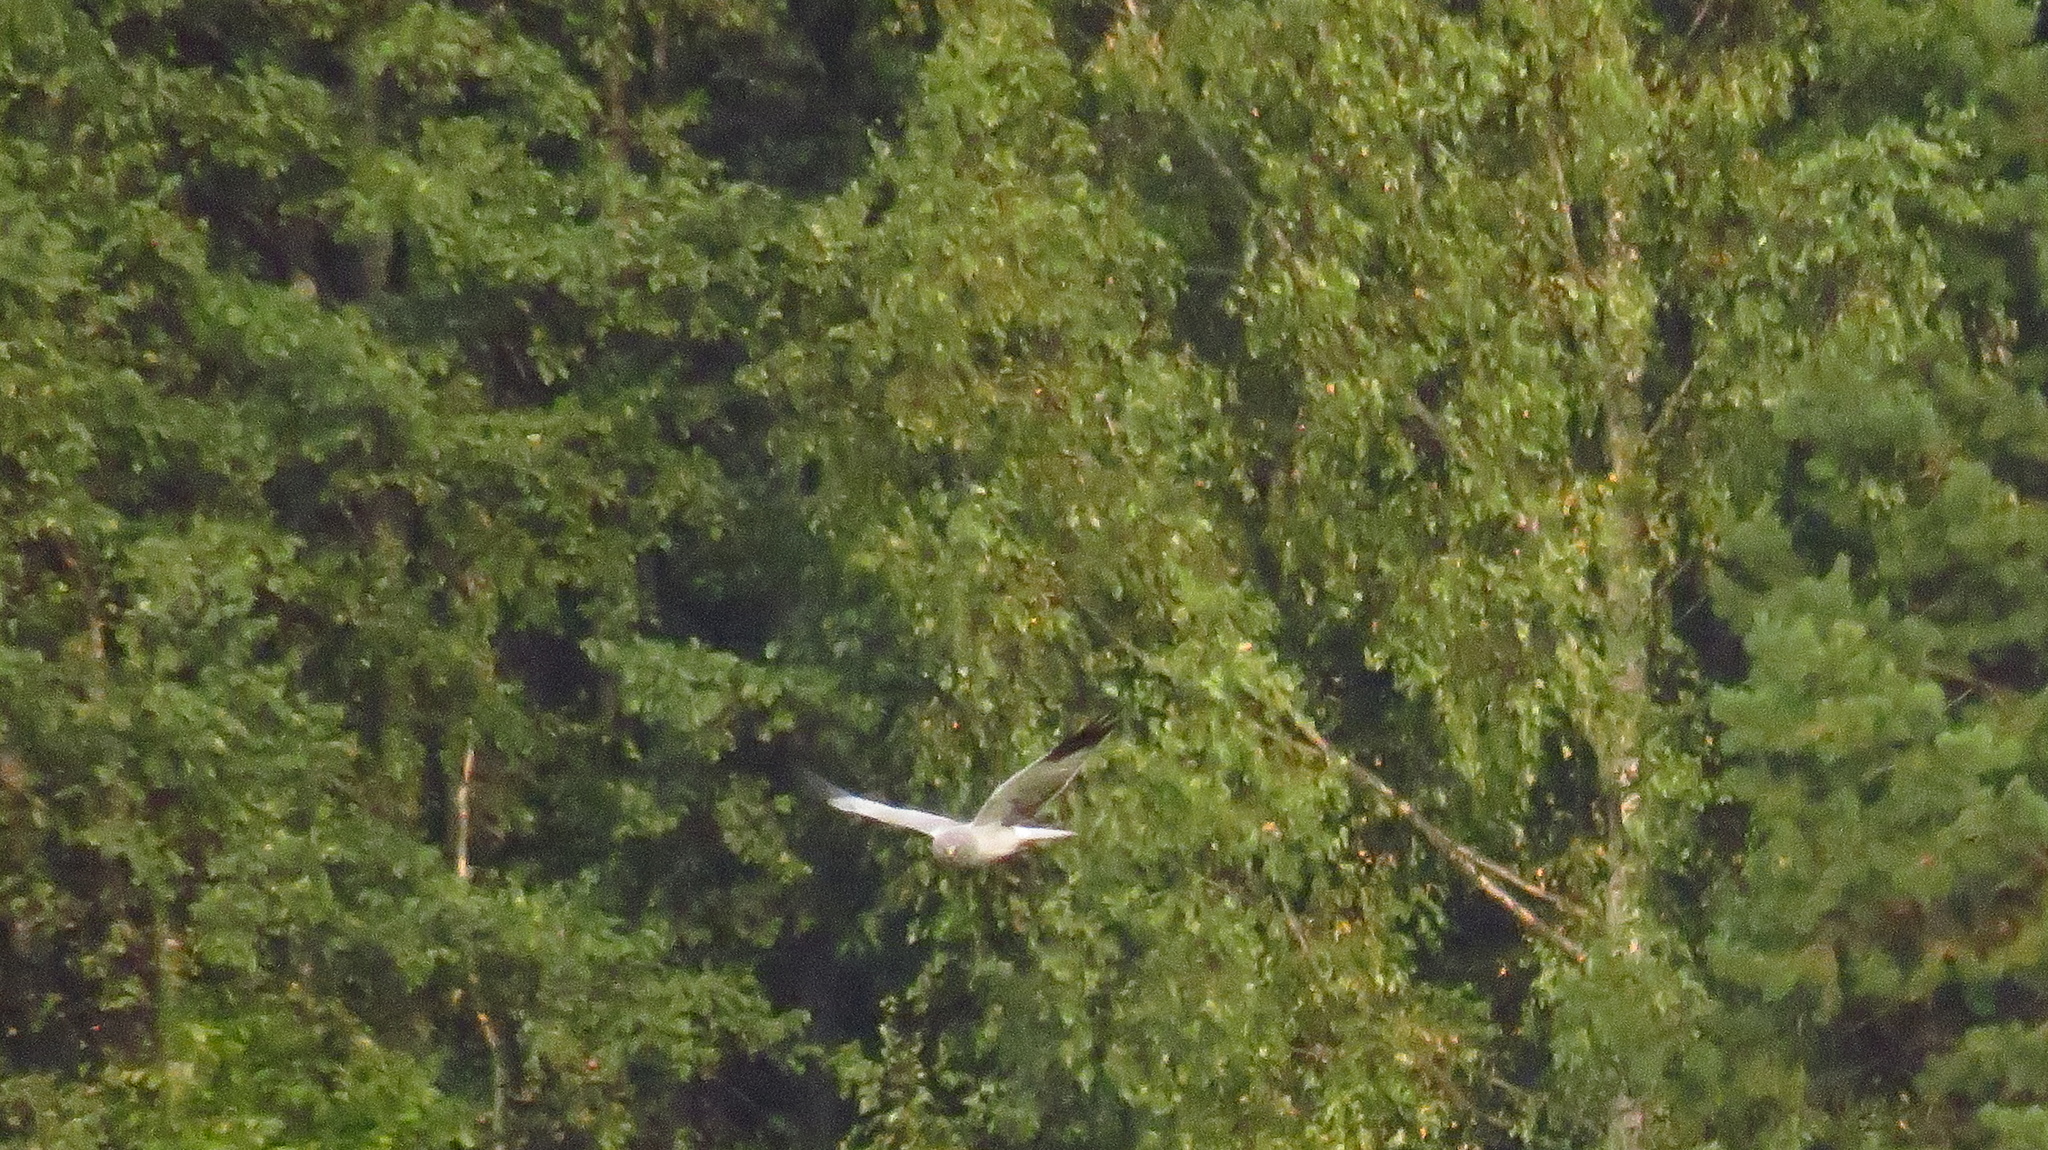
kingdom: Animalia
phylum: Chordata
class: Aves
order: Accipitriformes
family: Accipitridae
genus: Circus
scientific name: Circus cyaneus
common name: Hen harrier
